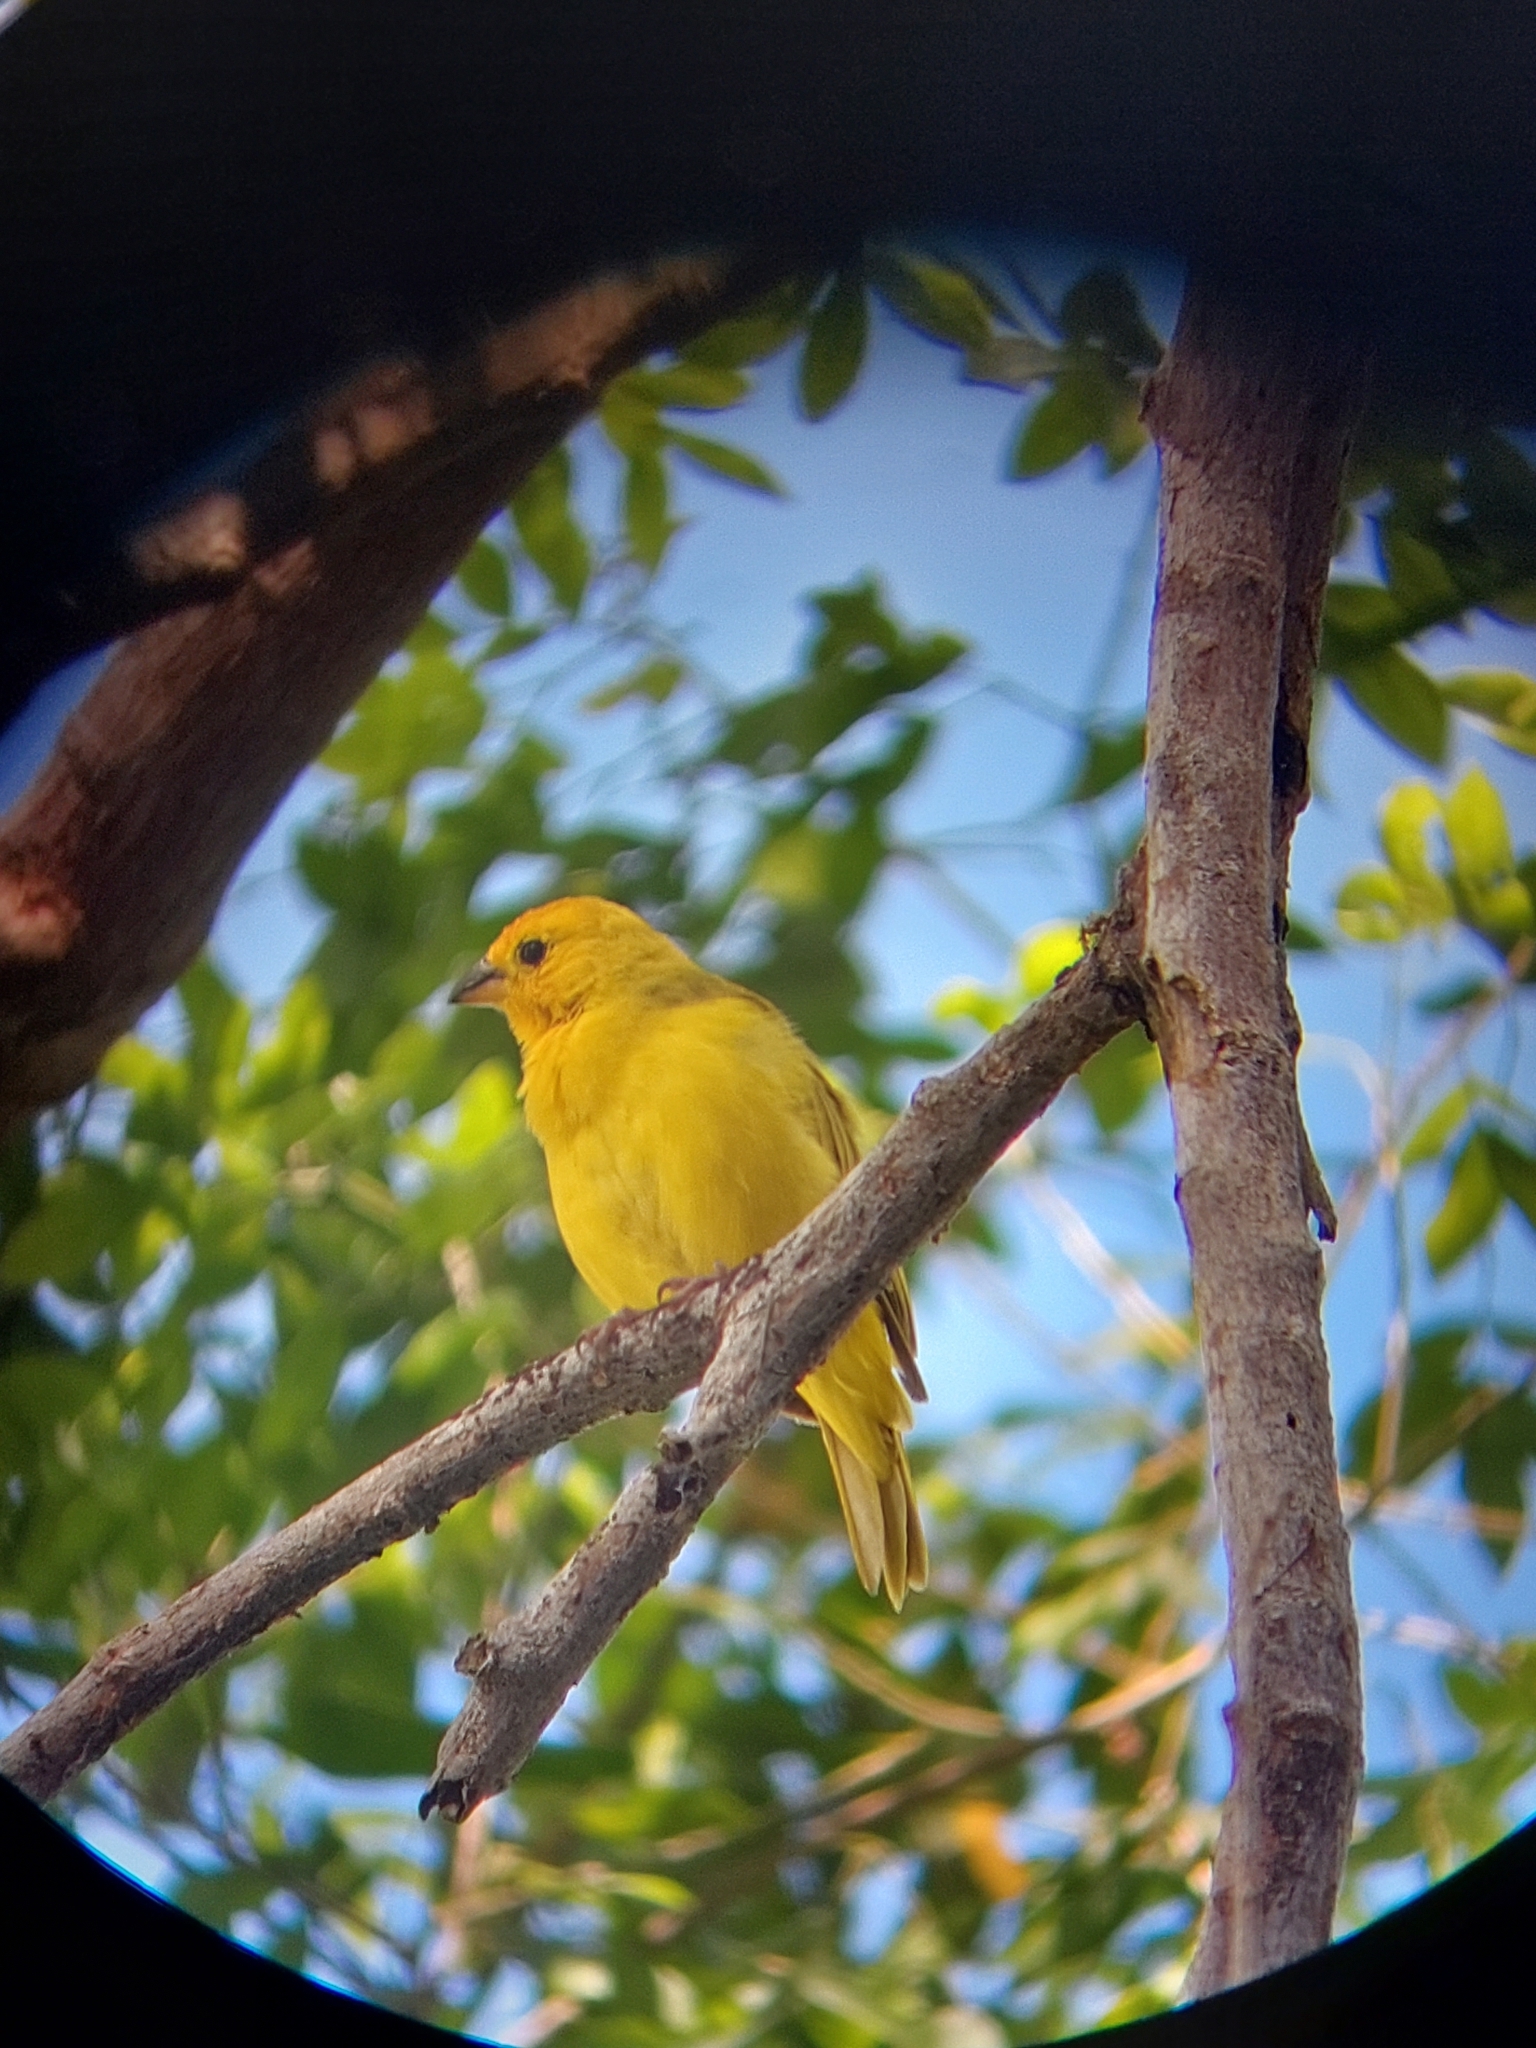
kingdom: Animalia
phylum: Chordata
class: Aves
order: Passeriformes
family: Thraupidae
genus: Sicalis
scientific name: Sicalis flaveola
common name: Saffron finch
